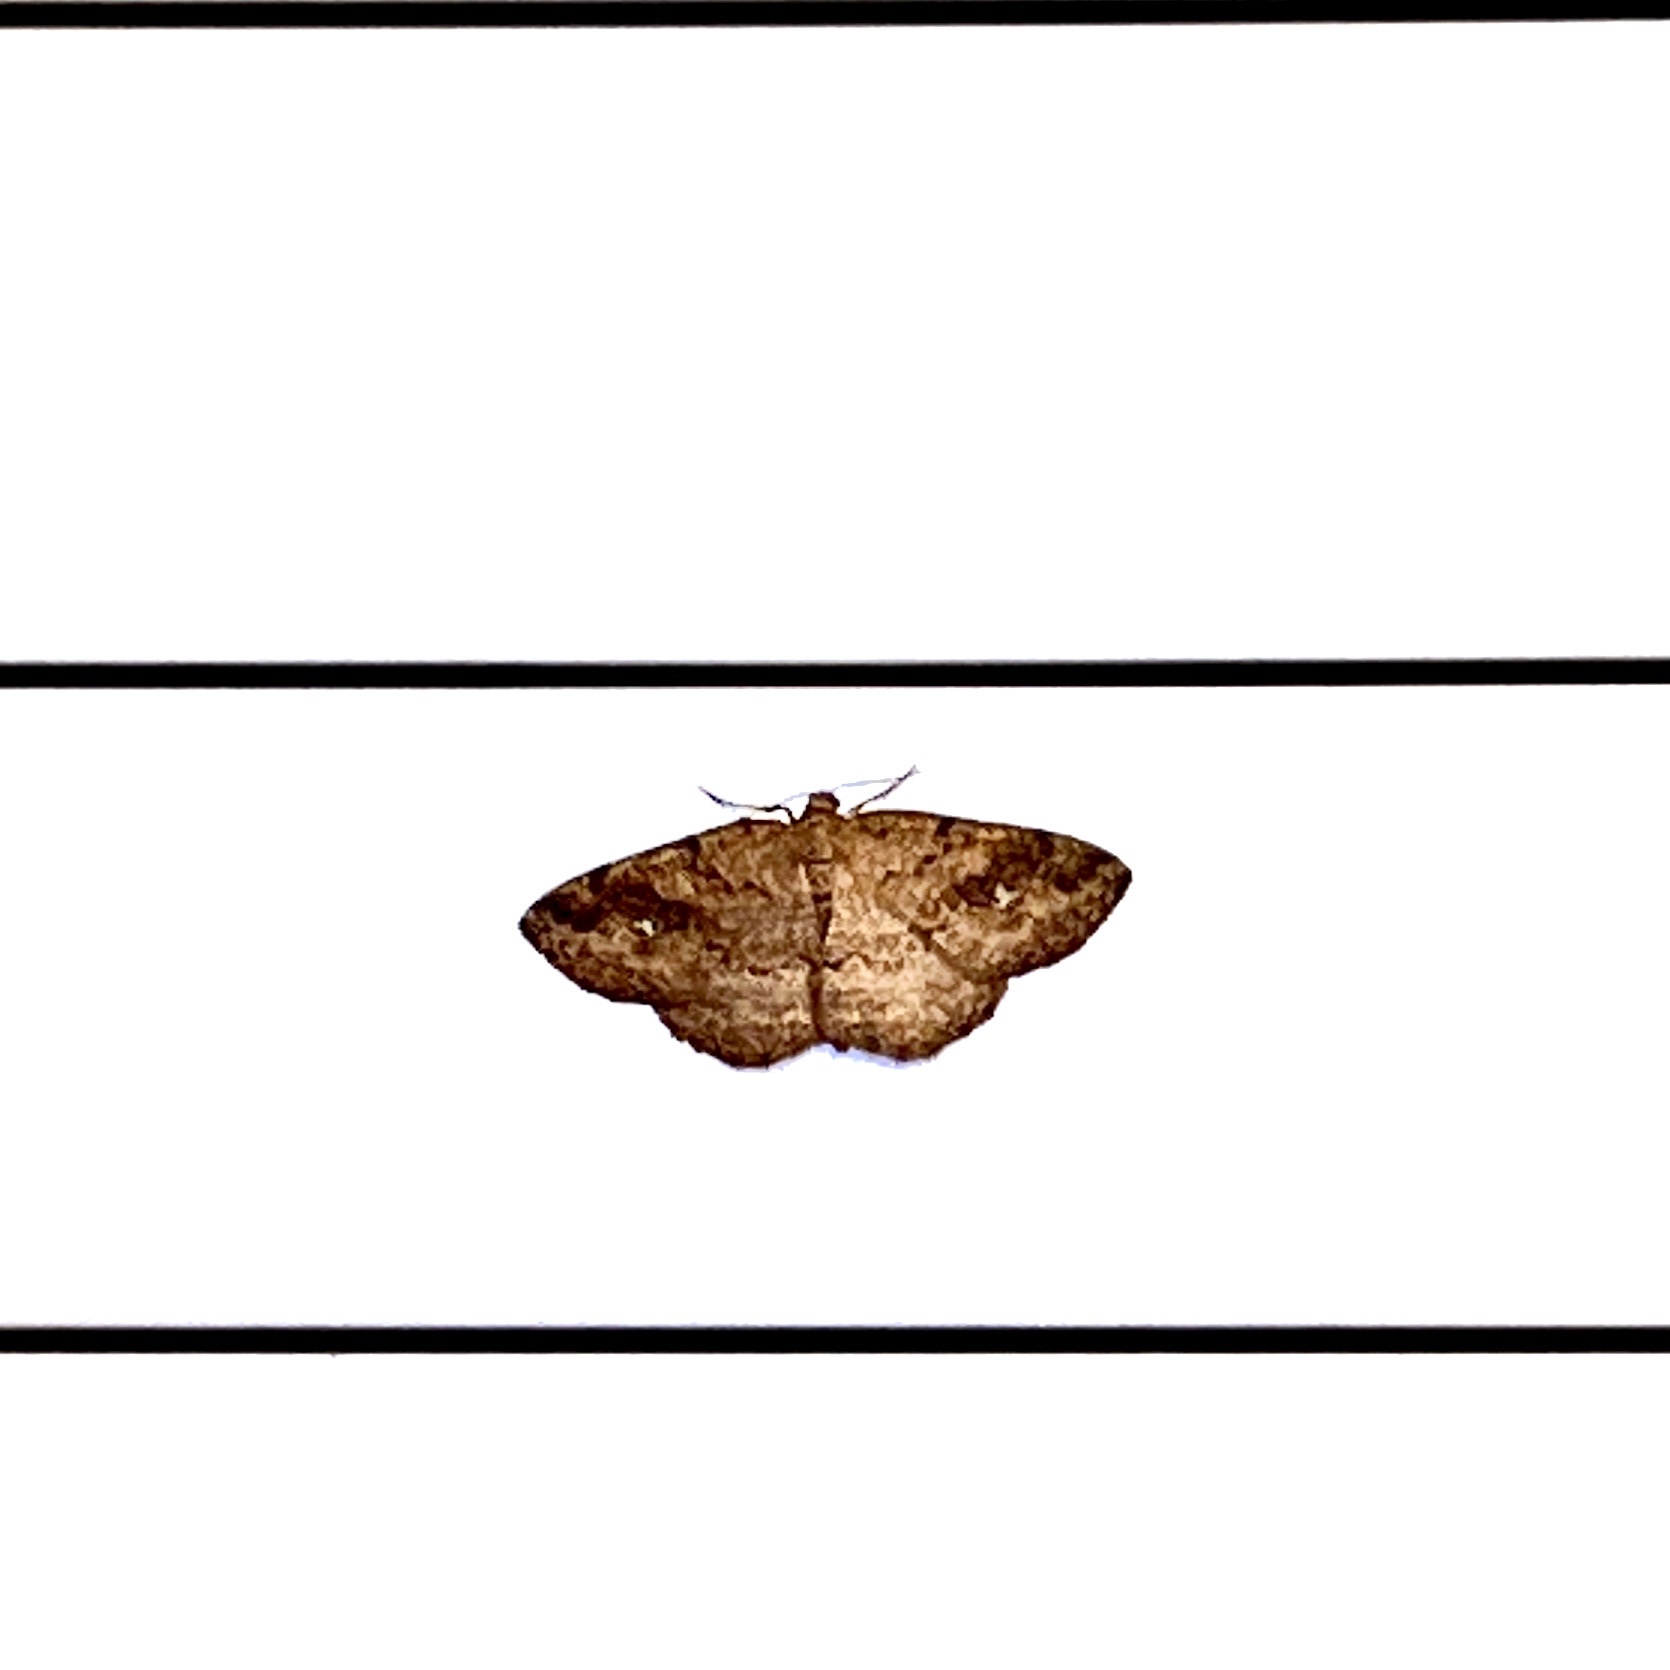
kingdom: Animalia
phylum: Arthropoda
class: Insecta
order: Lepidoptera
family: Geometridae
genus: Homochlodes
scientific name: Homochlodes fritillaria
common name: Pale homochlodes
